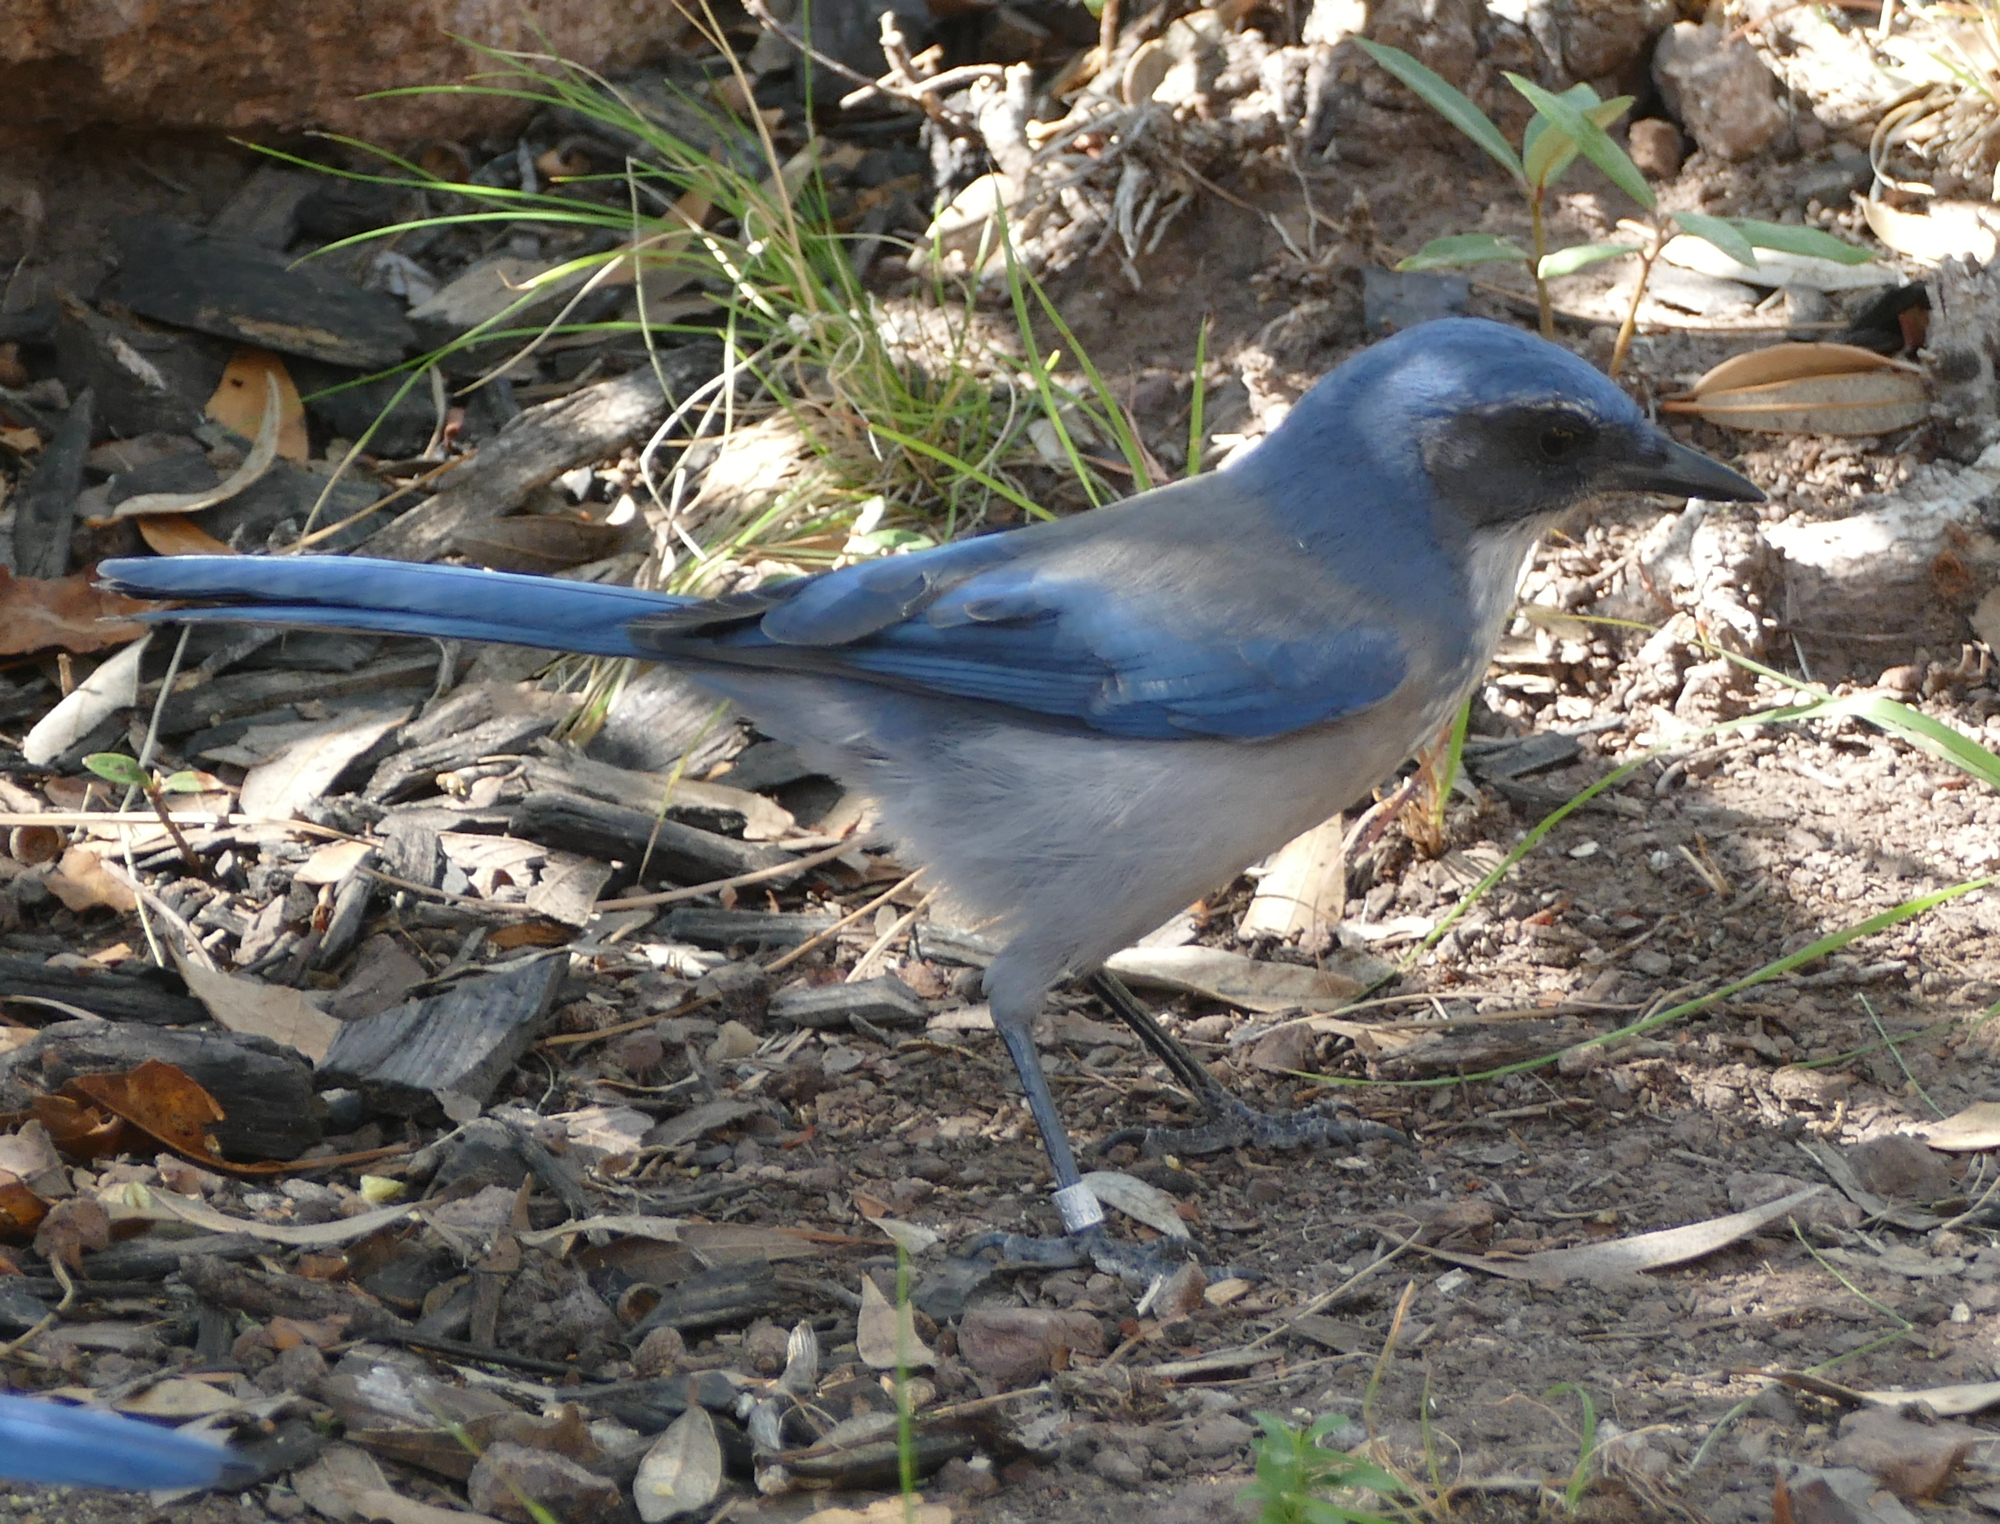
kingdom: Animalia
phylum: Chordata
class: Aves
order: Passeriformes
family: Corvidae
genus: Aphelocoma
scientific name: Aphelocoma woodhouseii
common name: Woodhouse's scrub-jay
